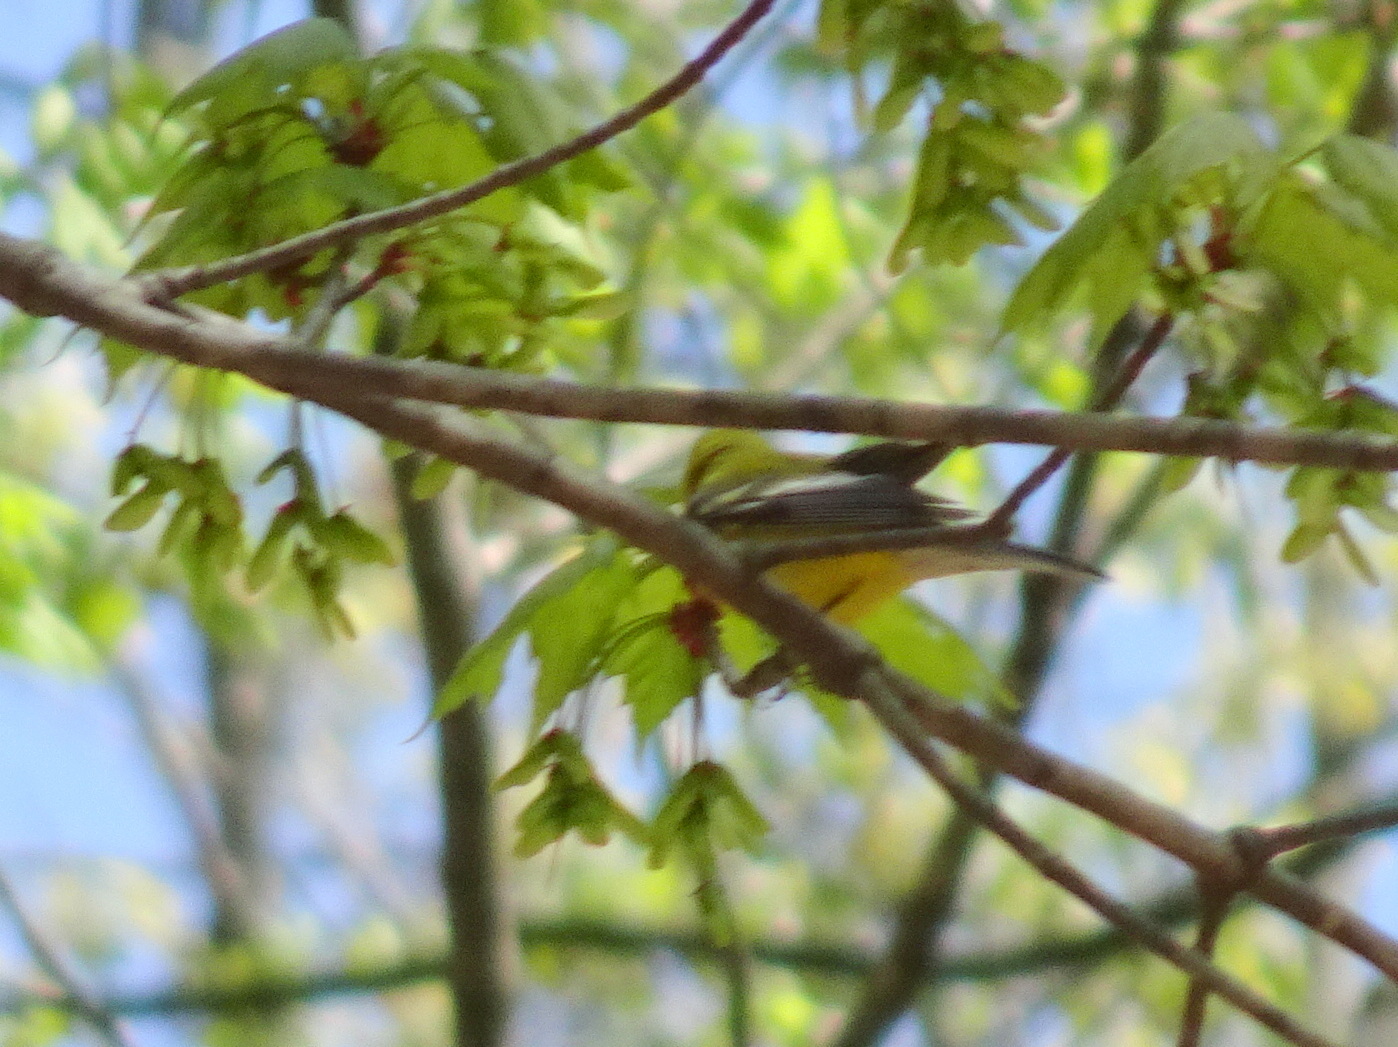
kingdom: Animalia
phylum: Chordata
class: Aves
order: Passeriformes
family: Parulidae
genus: Vermivora
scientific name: Vermivora cyanoptera
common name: Blue-winged warbler
